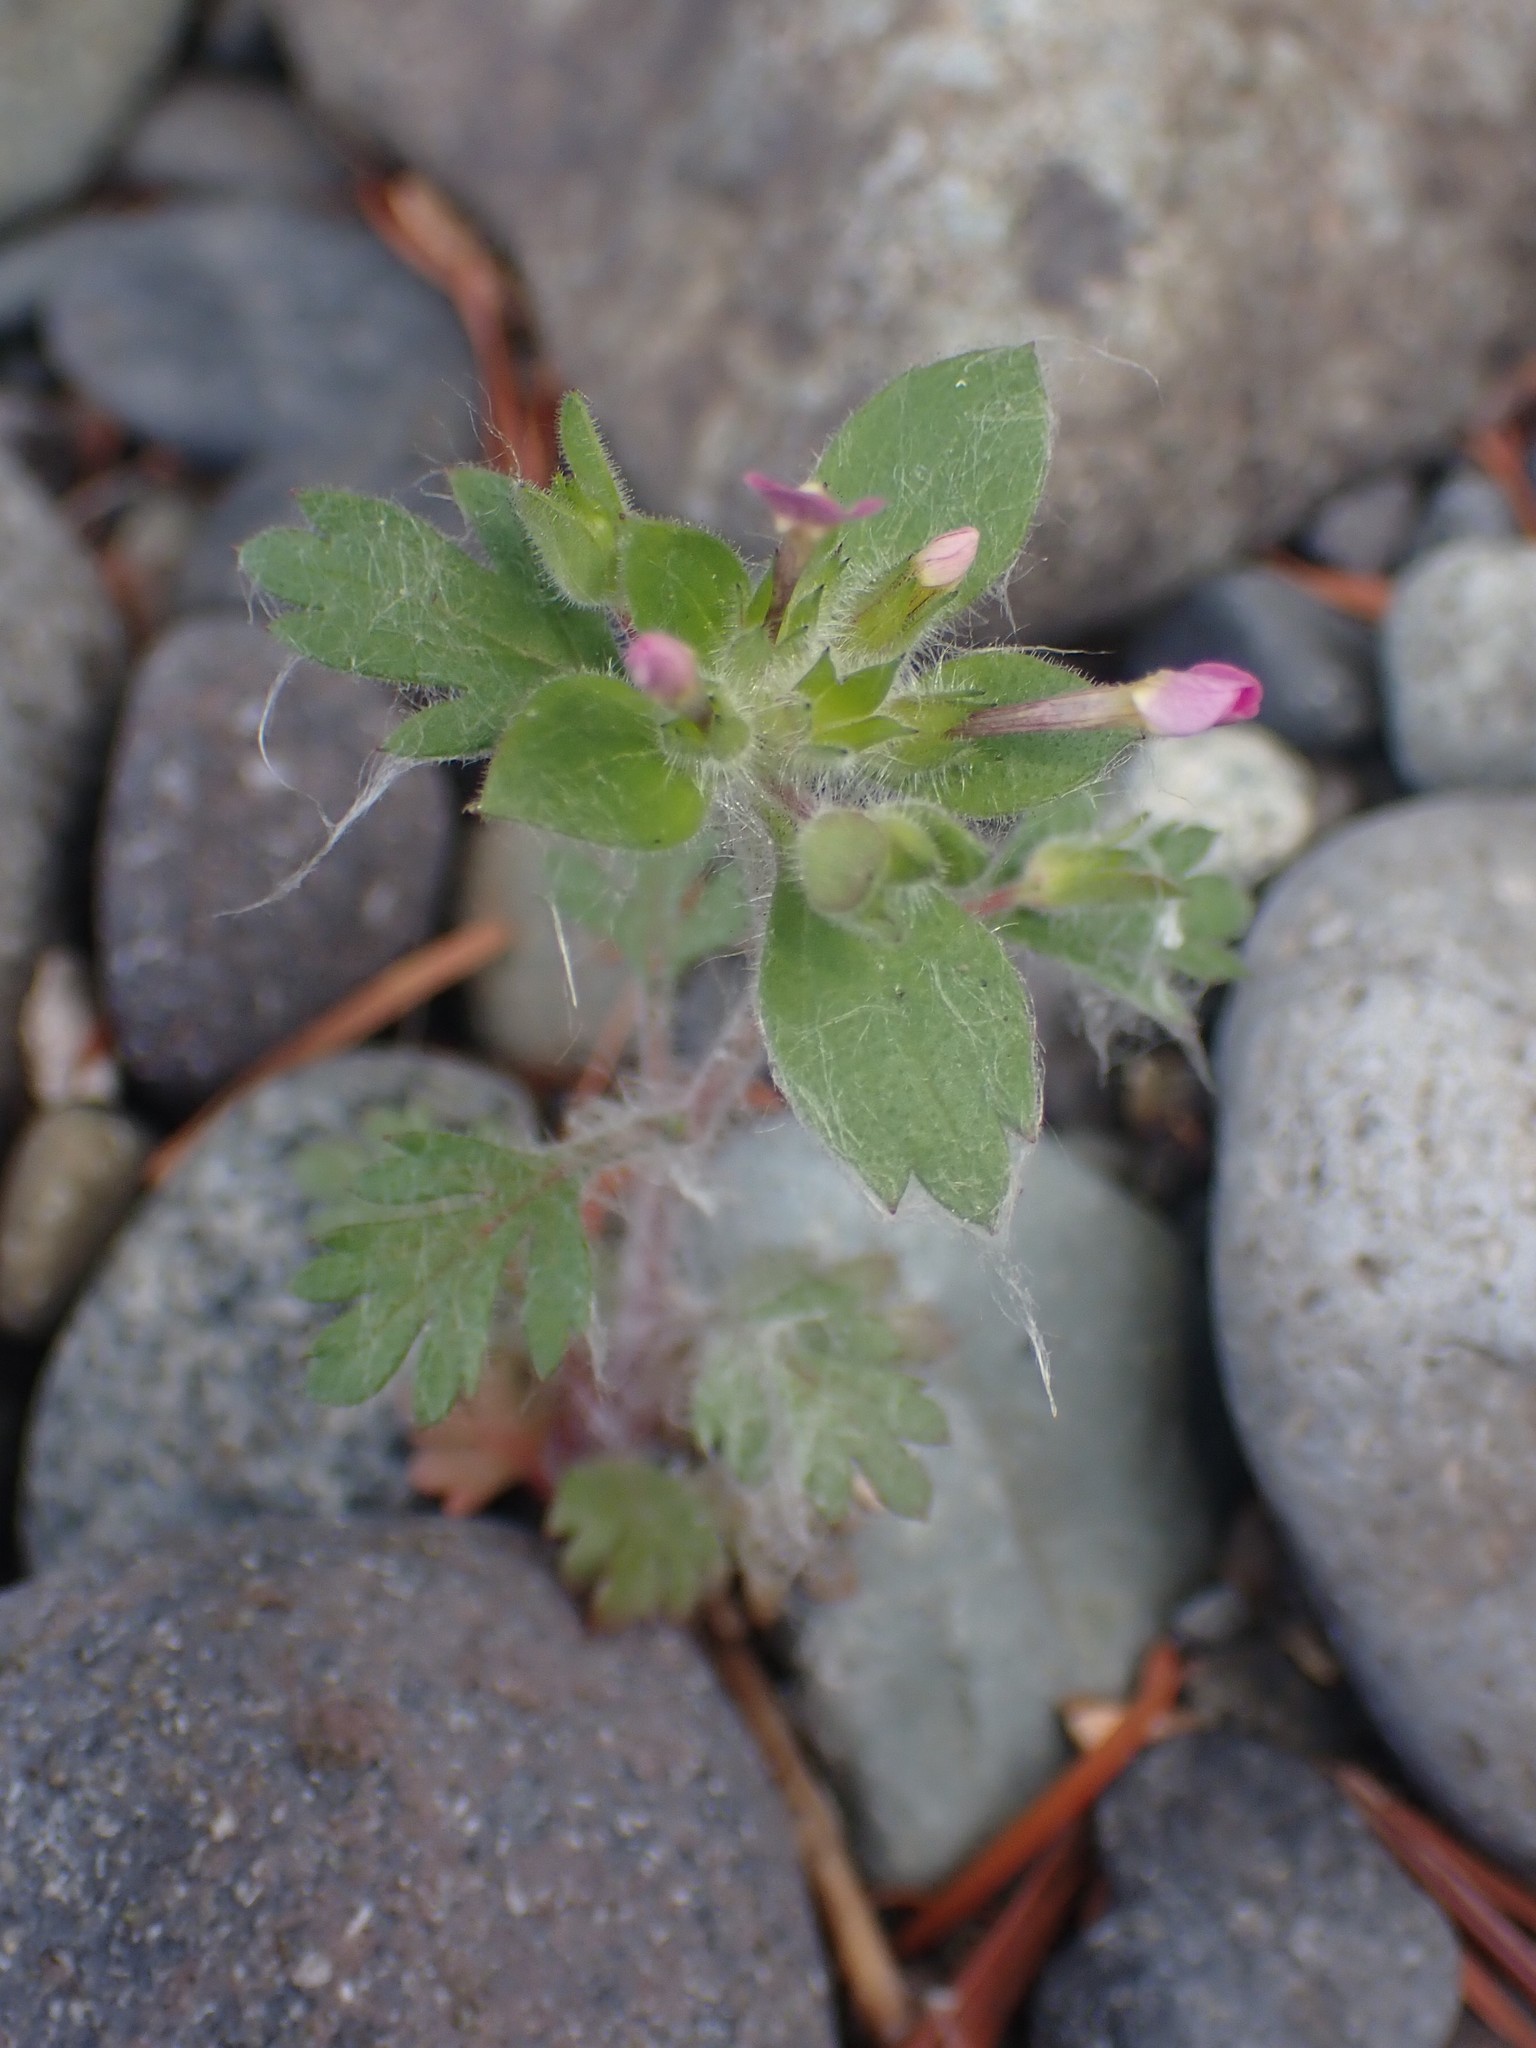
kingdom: Plantae
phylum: Tracheophyta
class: Magnoliopsida
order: Ericales
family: Polemoniaceae
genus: Collomia
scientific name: Collomia heterophylla
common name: Variable-leaved collomia
